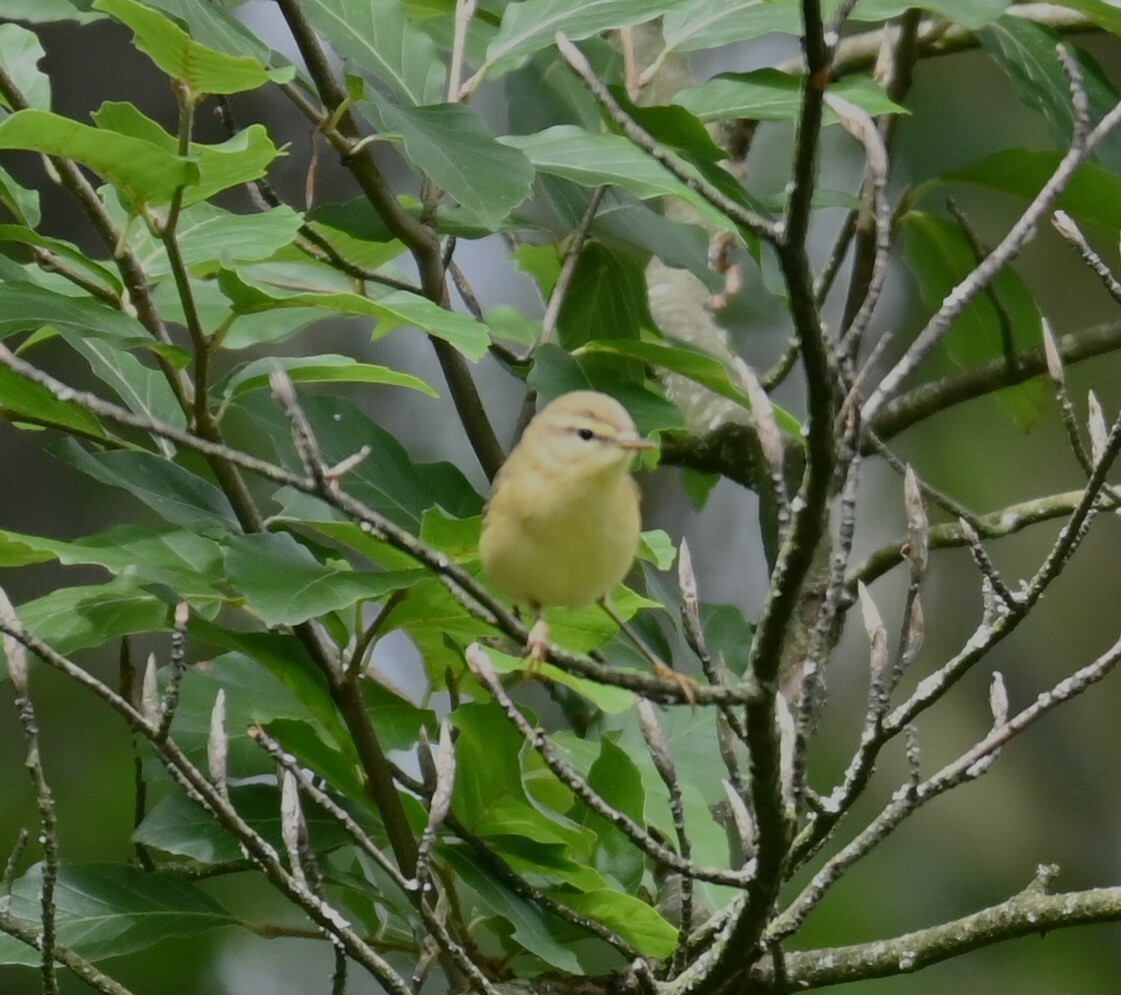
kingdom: Animalia
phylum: Chordata
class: Aves
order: Passeriformes
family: Phylloscopidae
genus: Phylloscopus
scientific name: Phylloscopus trochilus
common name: Willow warbler
